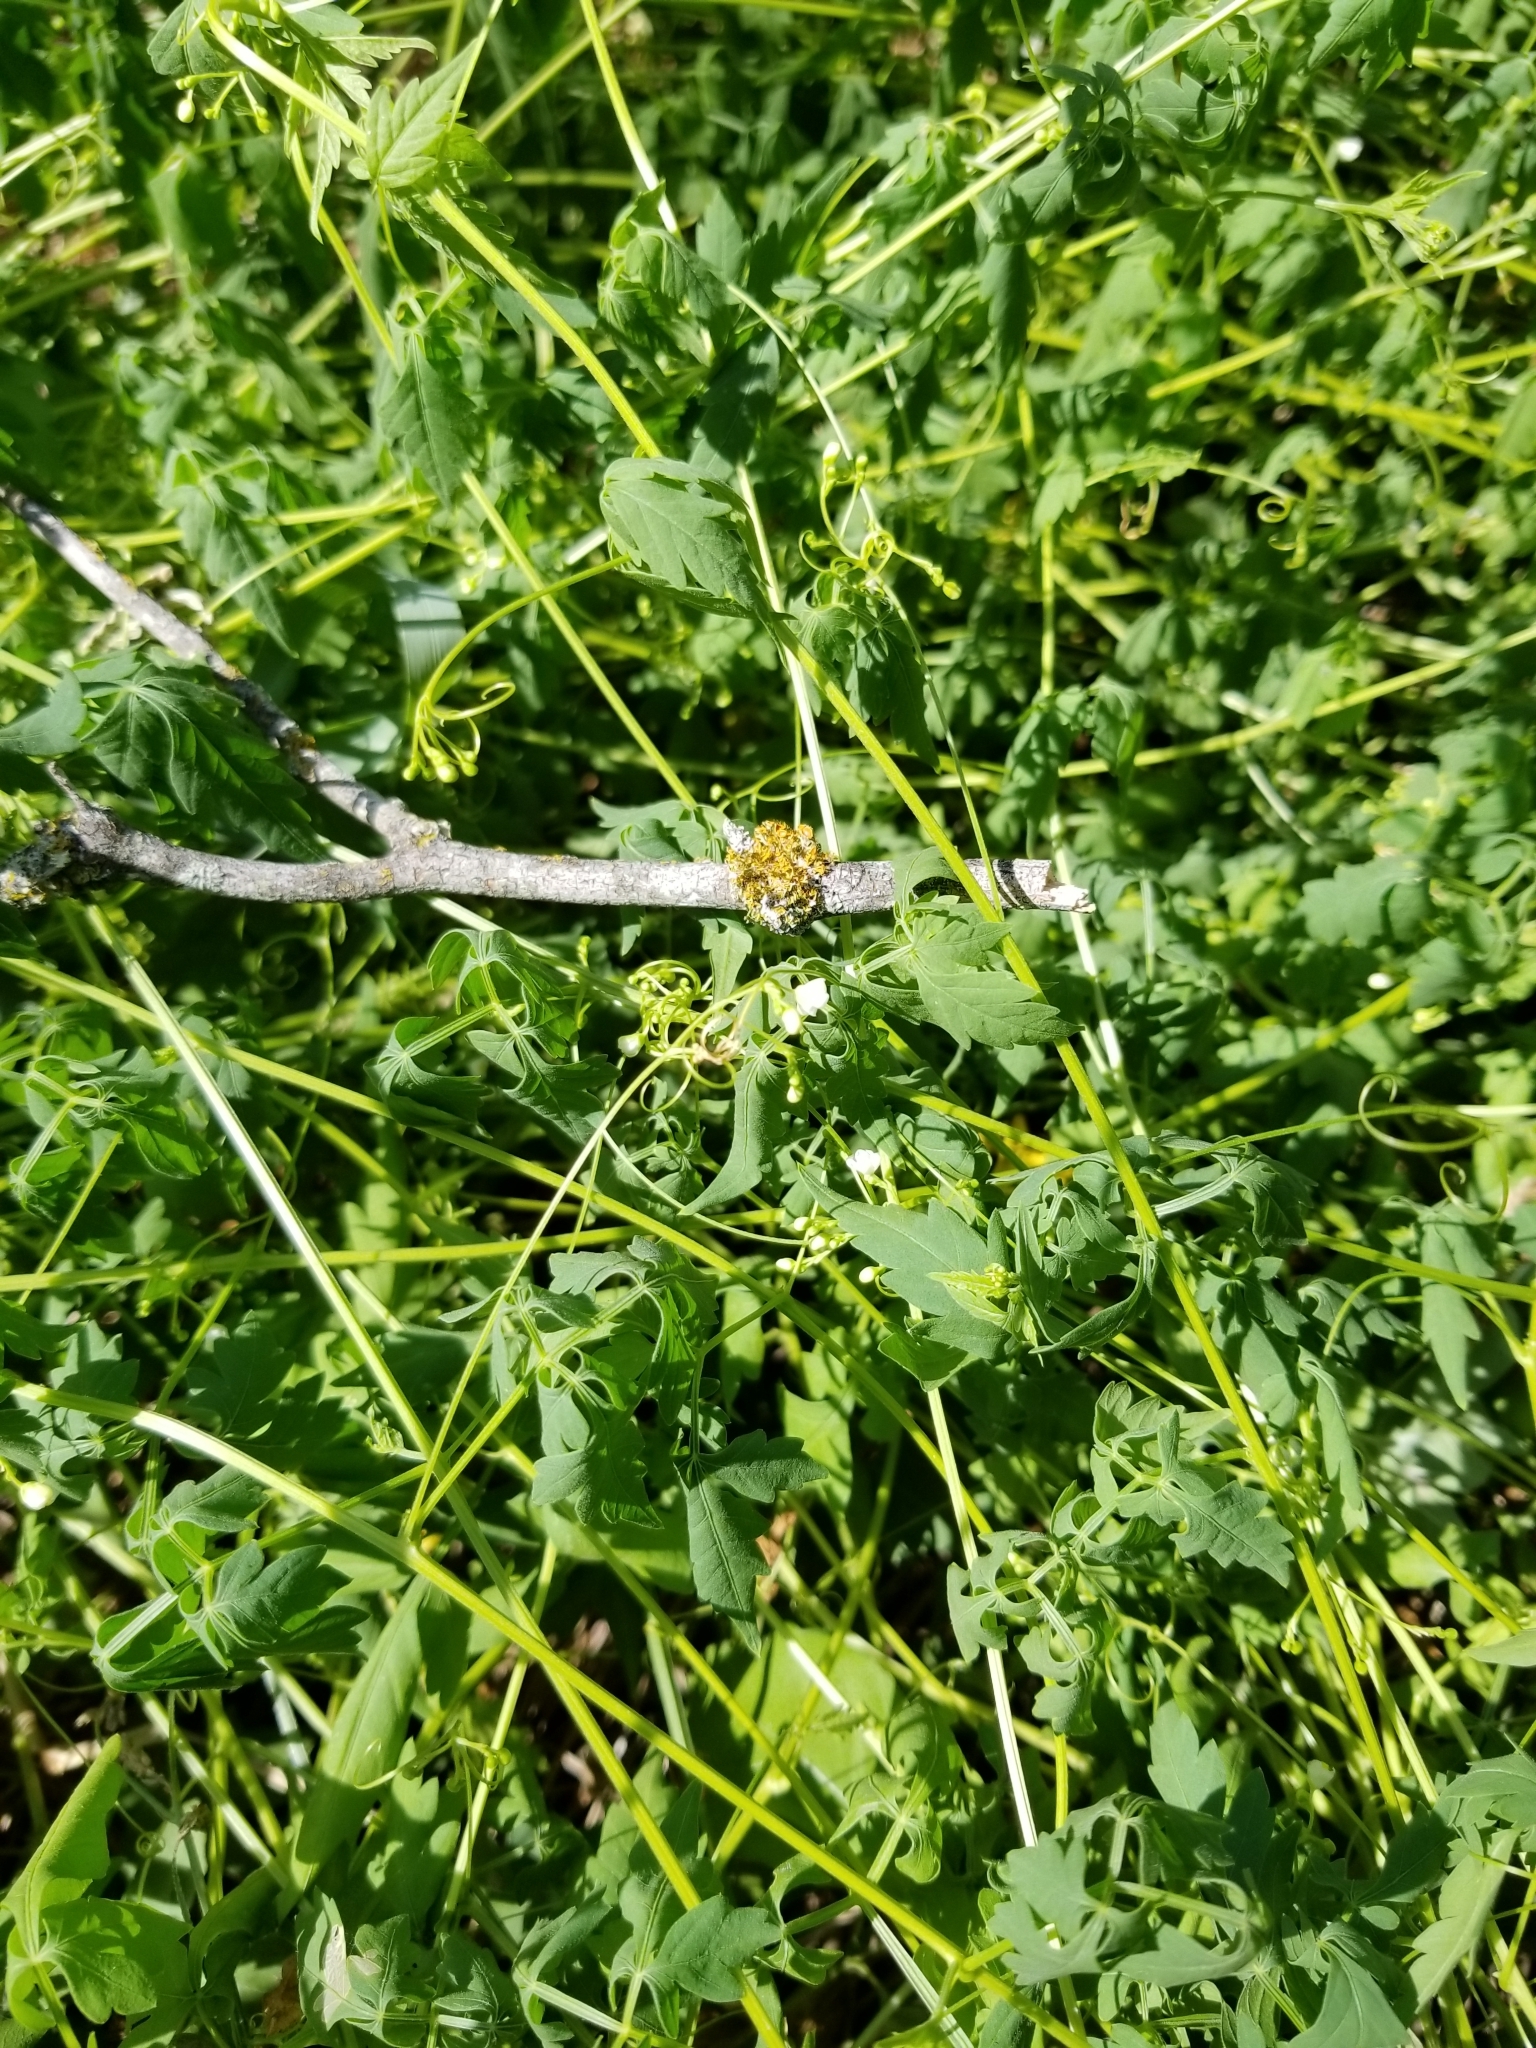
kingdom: Plantae
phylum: Tracheophyta
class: Magnoliopsida
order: Sapindales
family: Sapindaceae
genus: Cardiospermum
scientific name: Cardiospermum halicacabum
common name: Balloon vine
